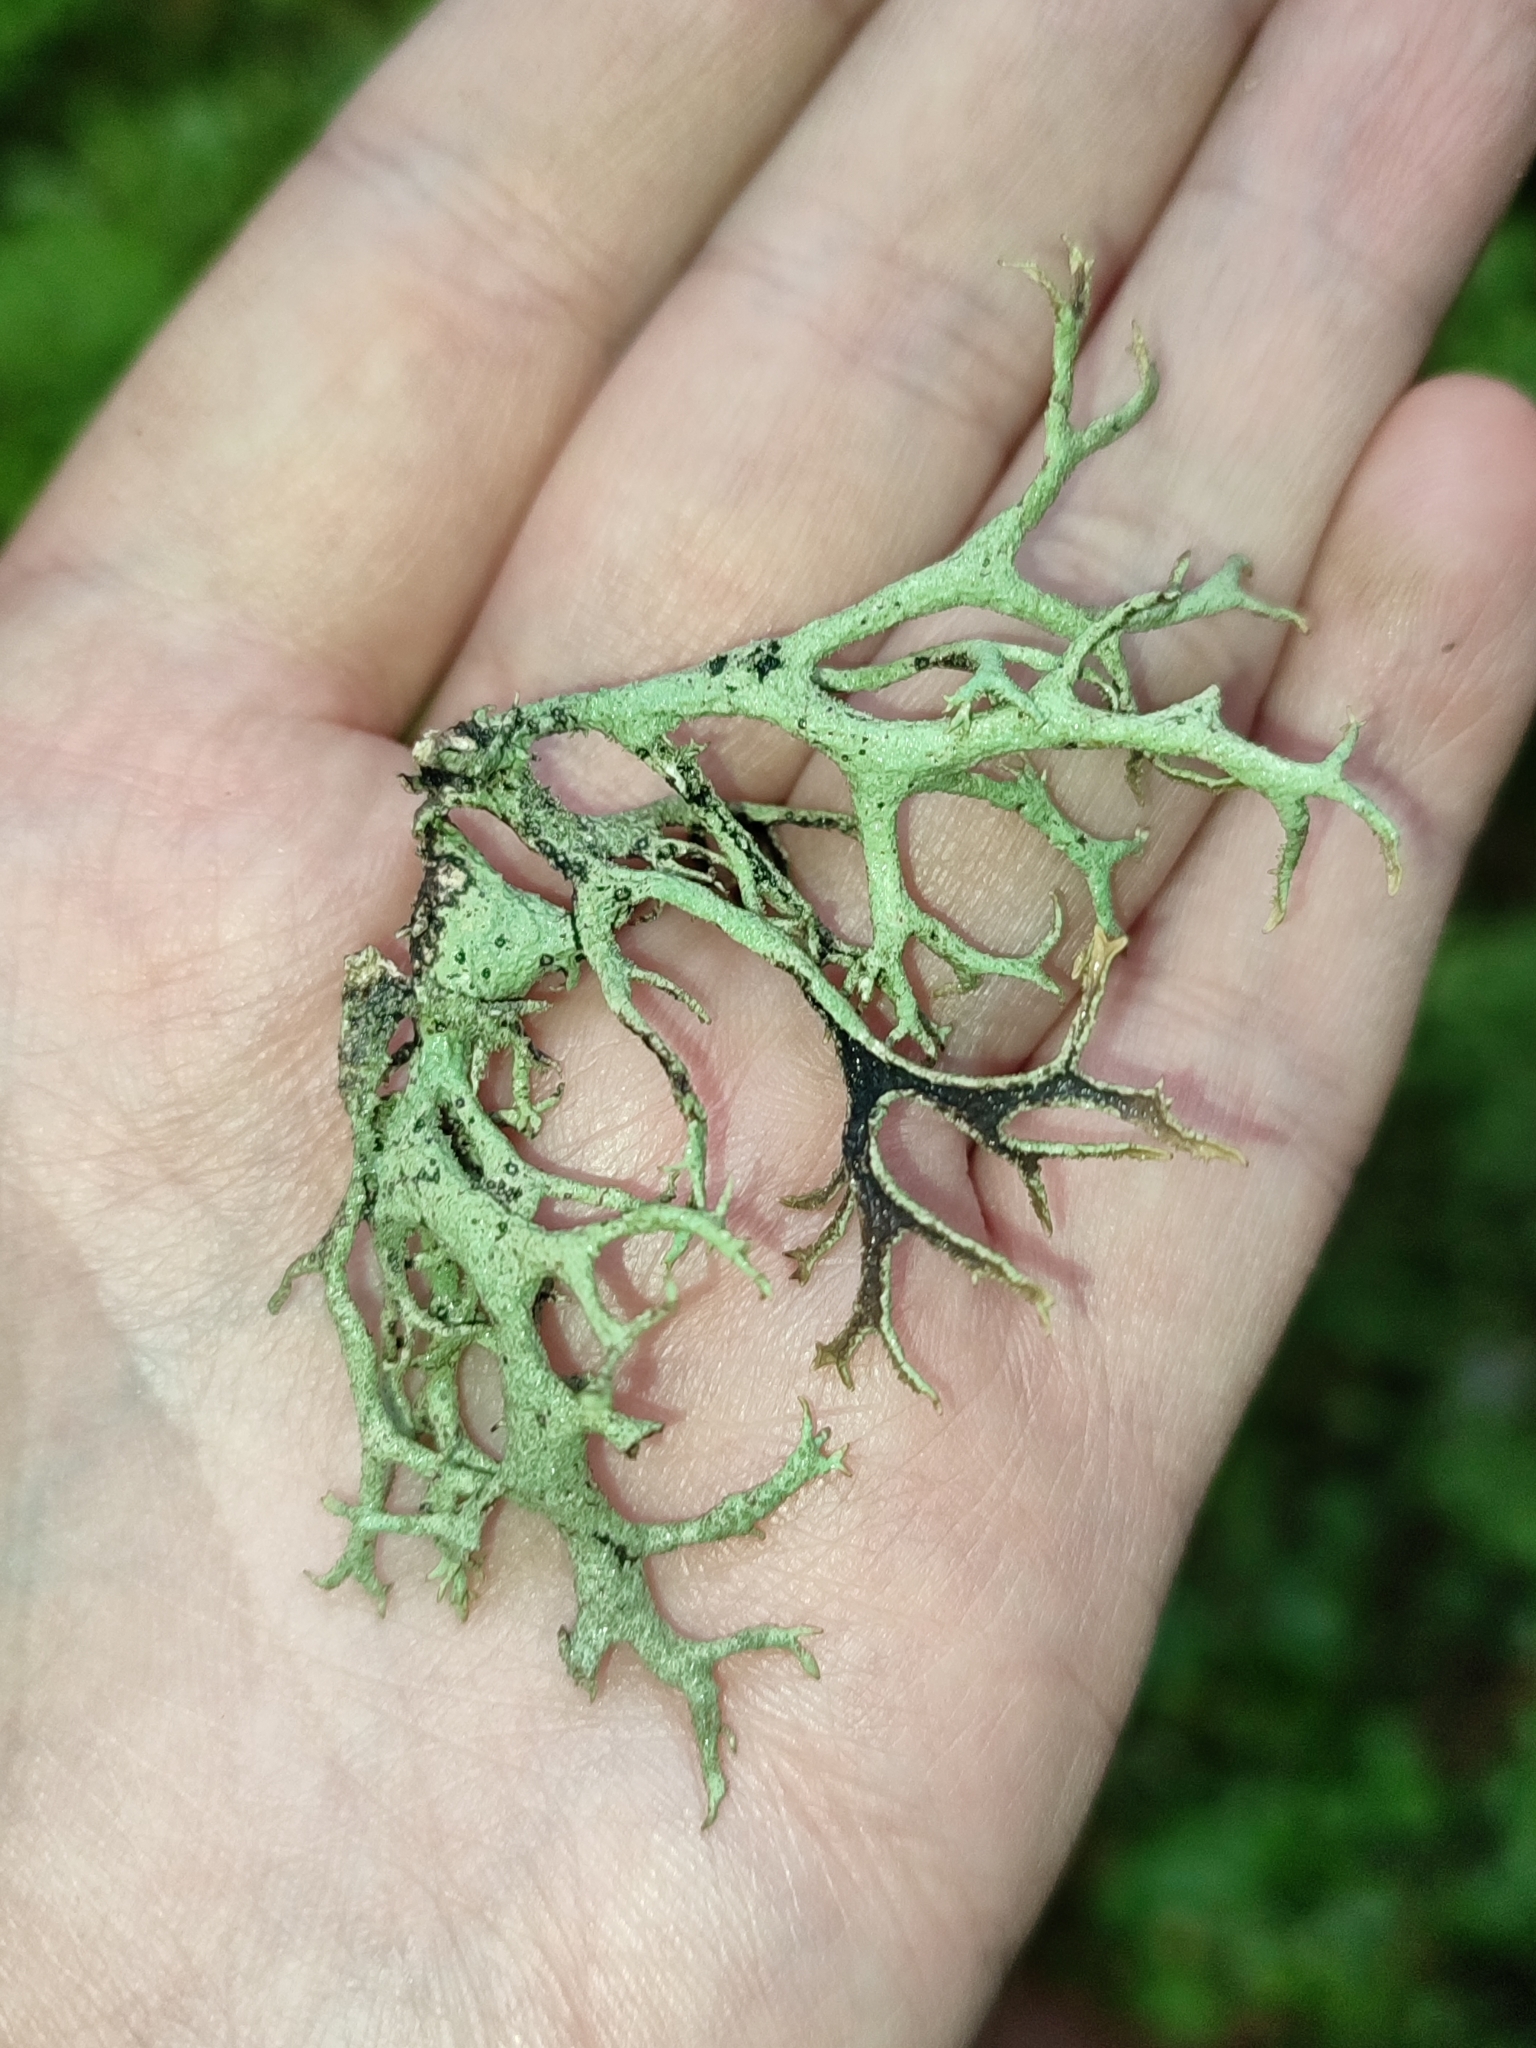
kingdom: Fungi
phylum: Ascomycota
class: Lecanoromycetes
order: Lecanorales
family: Parmeliaceae
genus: Pseudevernia
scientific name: Pseudevernia furfuracea
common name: Tree moss
